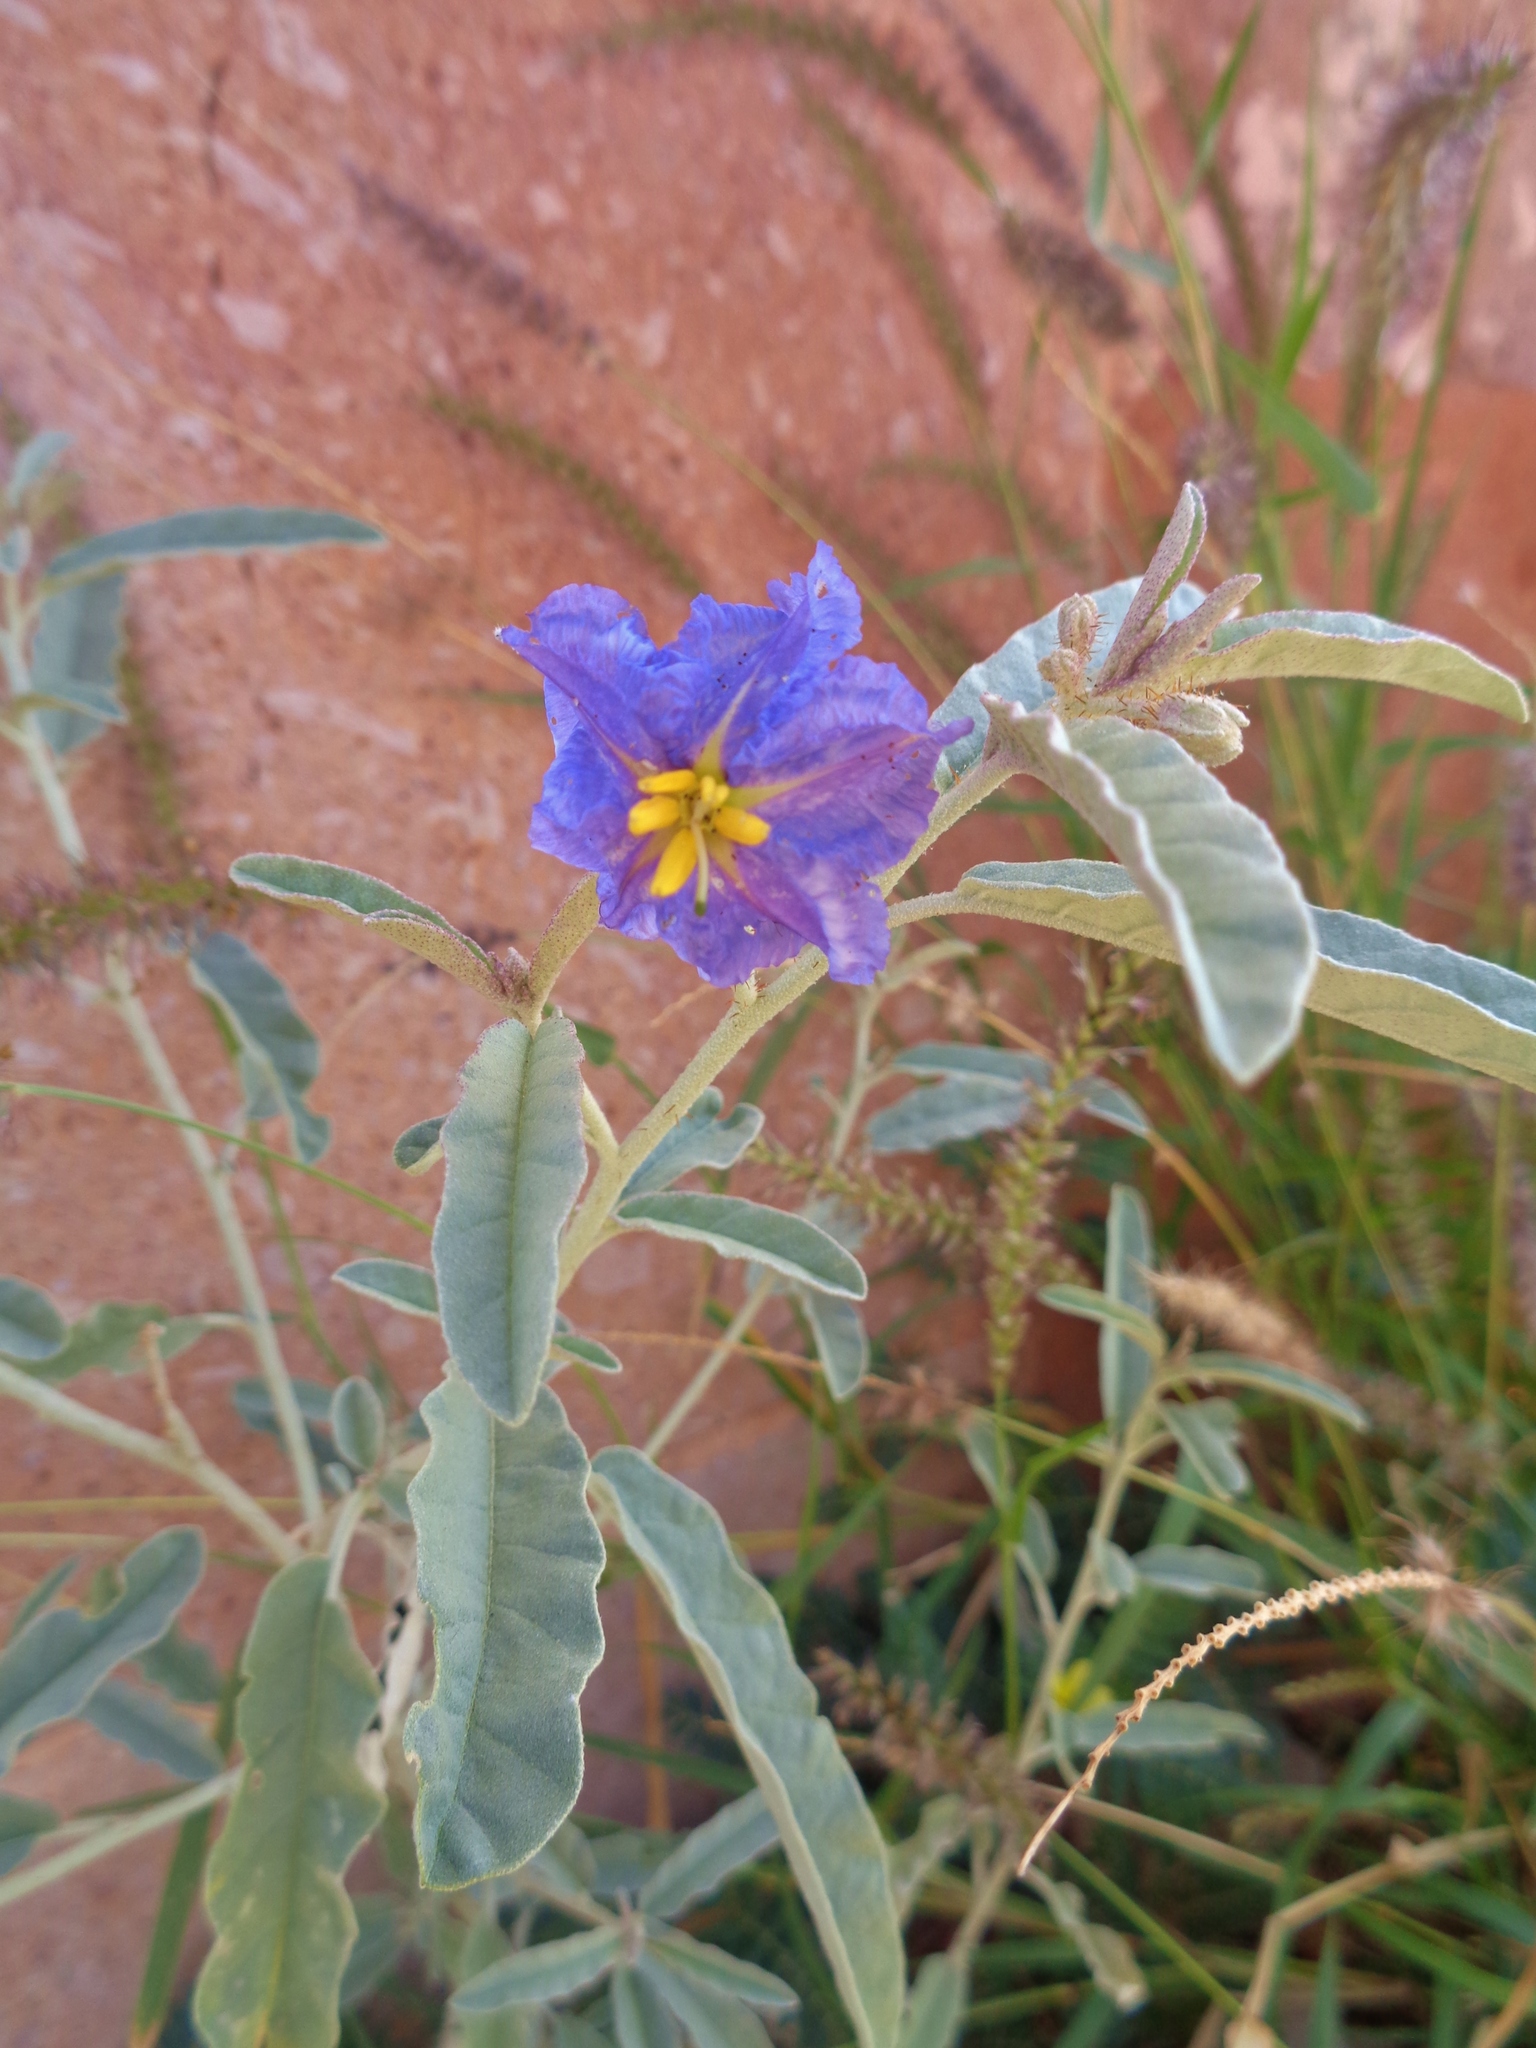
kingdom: Plantae
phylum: Tracheophyta
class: Magnoliopsida
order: Solanales
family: Solanaceae
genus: Solanum
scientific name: Solanum elaeagnifolium
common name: Silverleaf nightshade
